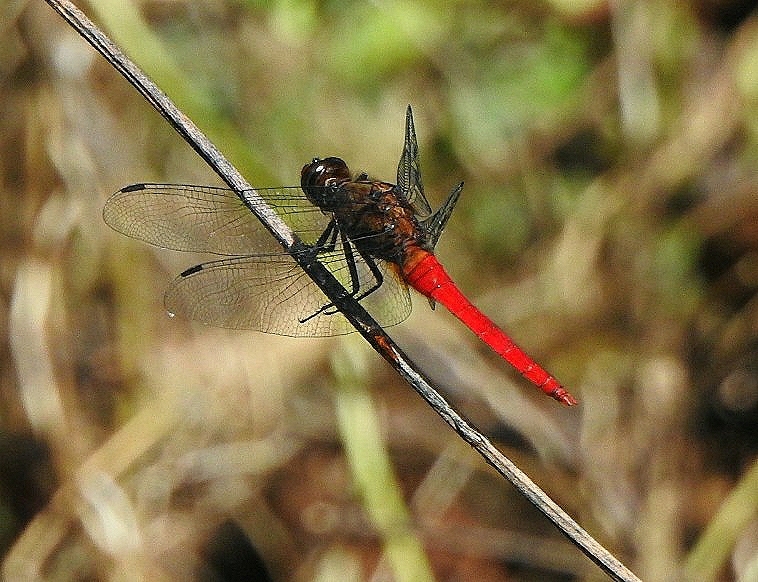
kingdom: Animalia
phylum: Arthropoda
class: Insecta
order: Odonata
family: Libellulidae
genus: Orthetrum
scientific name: Orthetrum chrysis
